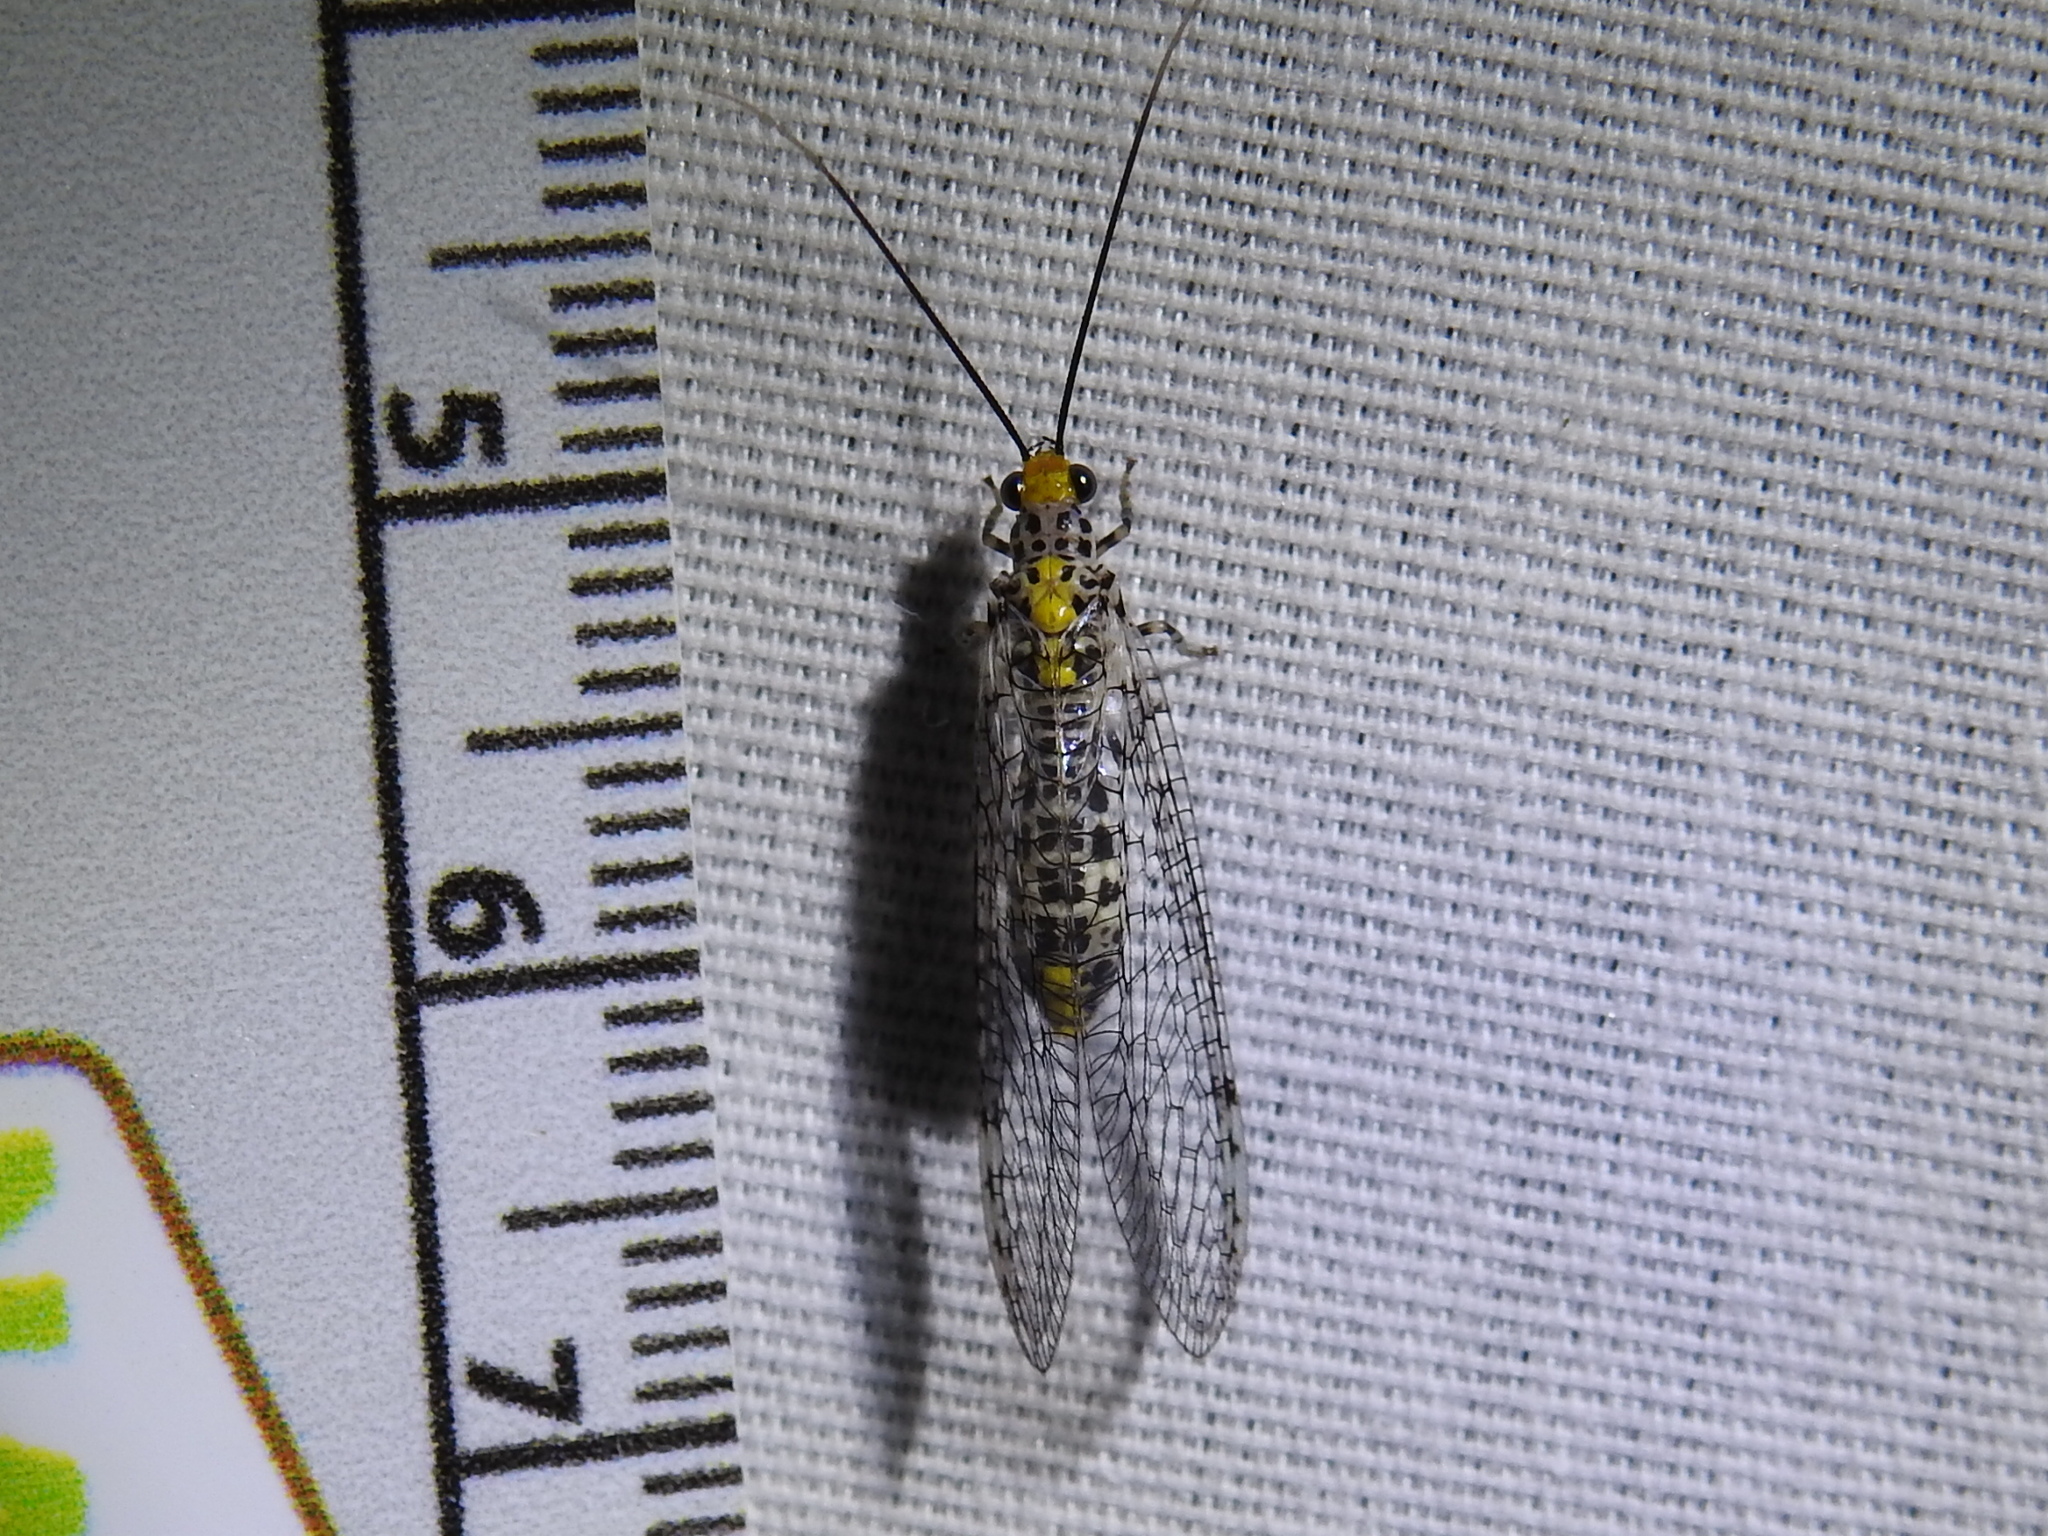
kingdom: Animalia
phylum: Arthropoda
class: Insecta
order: Neuroptera
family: Chrysopidae
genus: Abachrysa
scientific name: Abachrysa eureka
